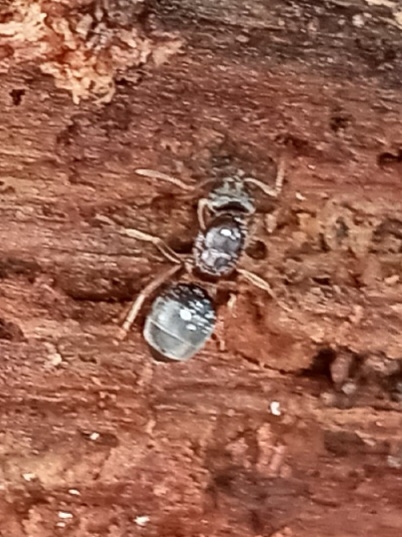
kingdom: Animalia
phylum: Arthropoda
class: Insecta
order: Hymenoptera
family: Formicidae
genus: Lasius
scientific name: Lasius aphidicola
